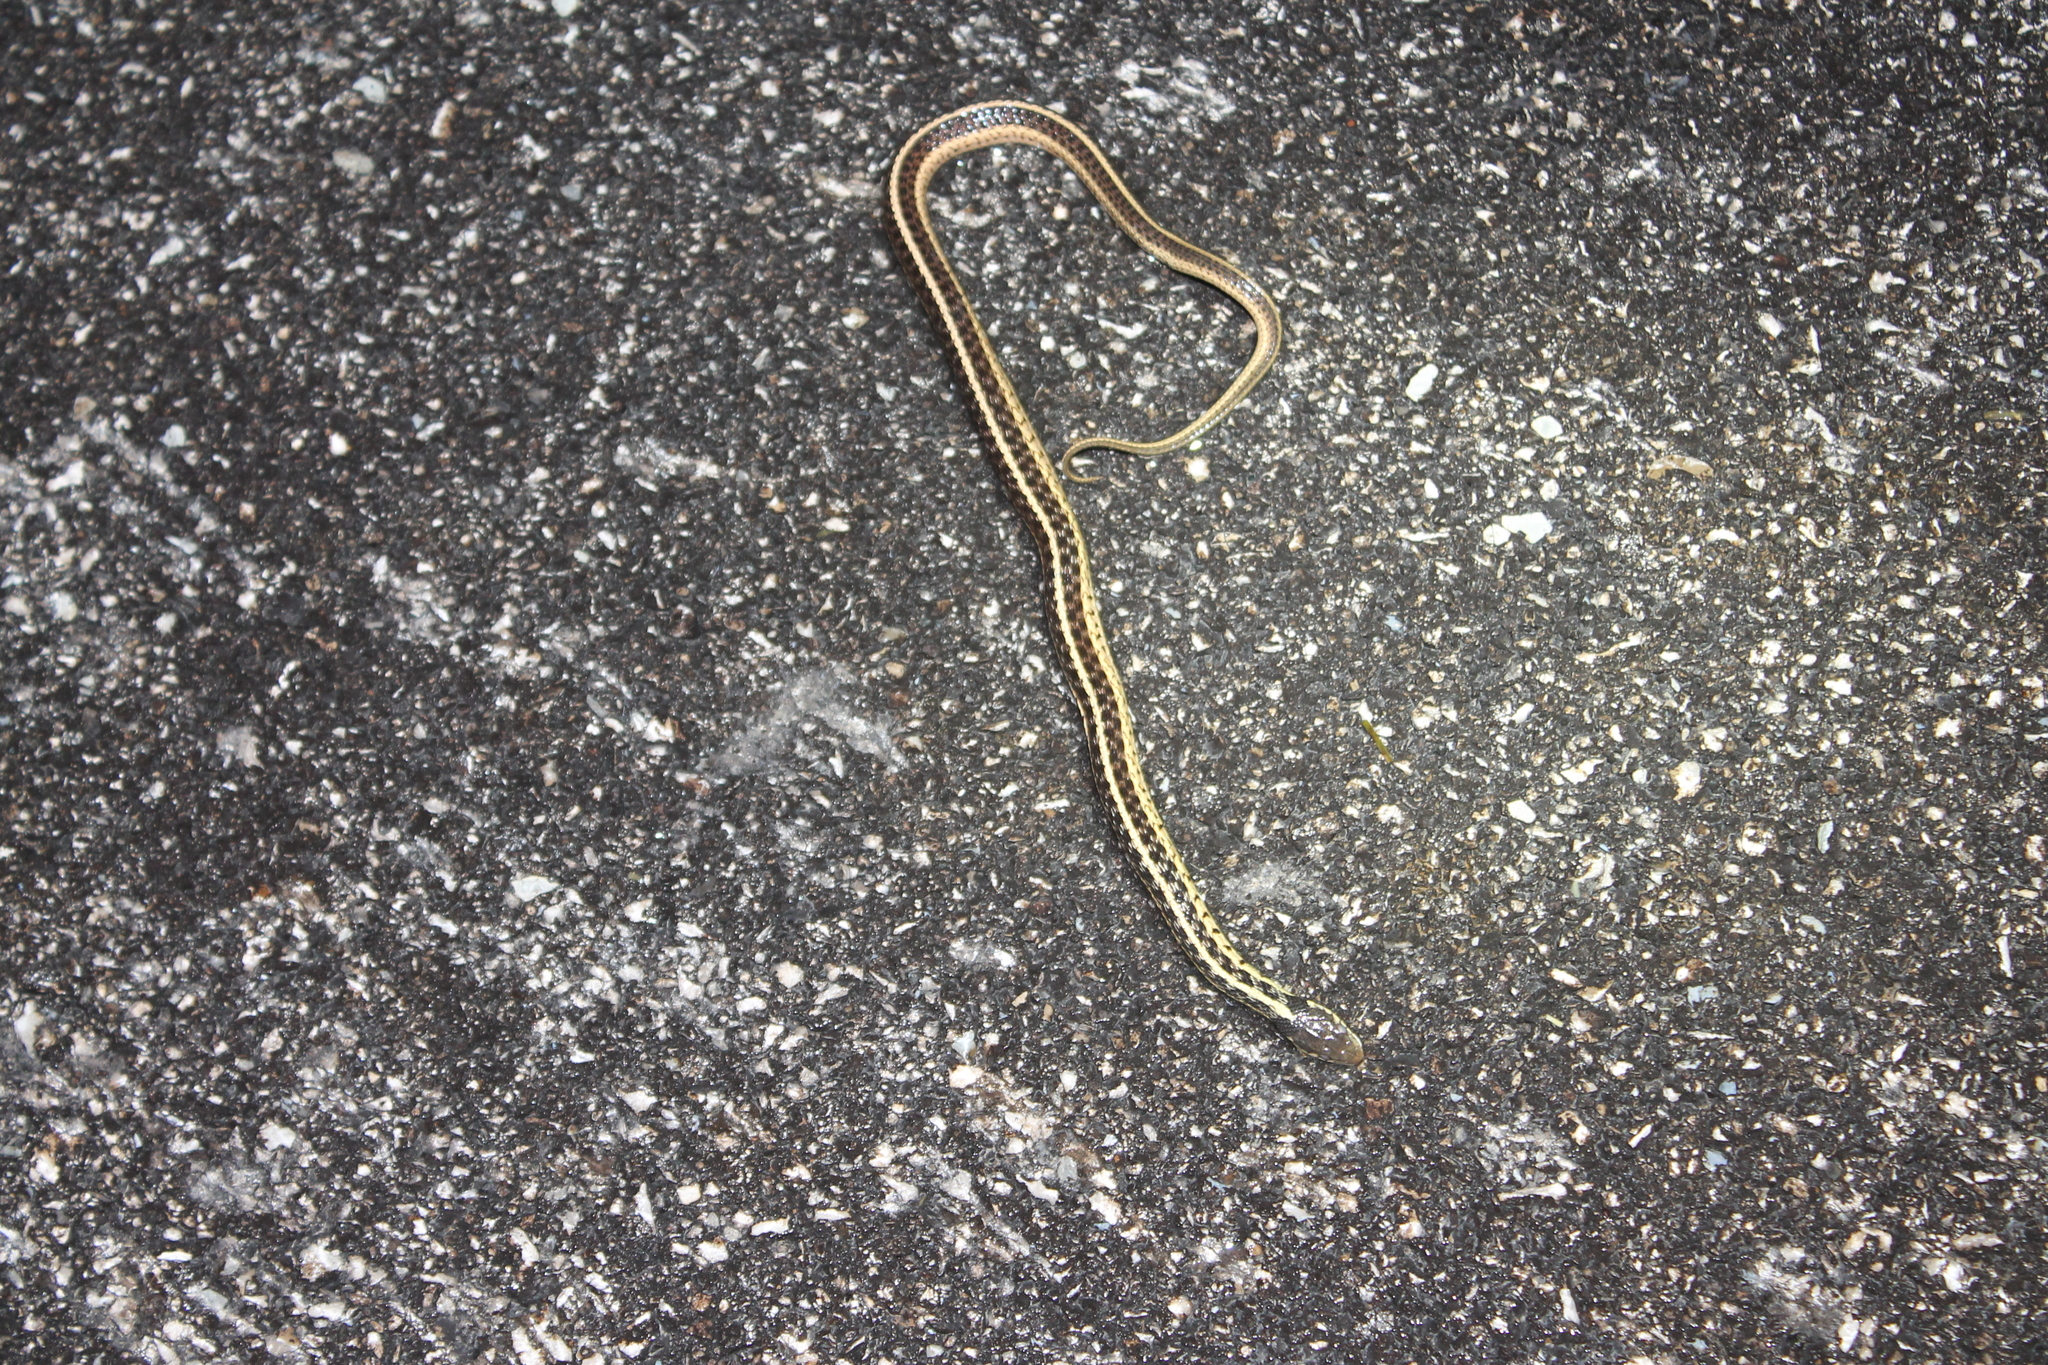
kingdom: Animalia
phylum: Chordata
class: Squamata
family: Colubridae
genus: Thamnophis
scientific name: Thamnophis sirtalis
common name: Common garter snake
